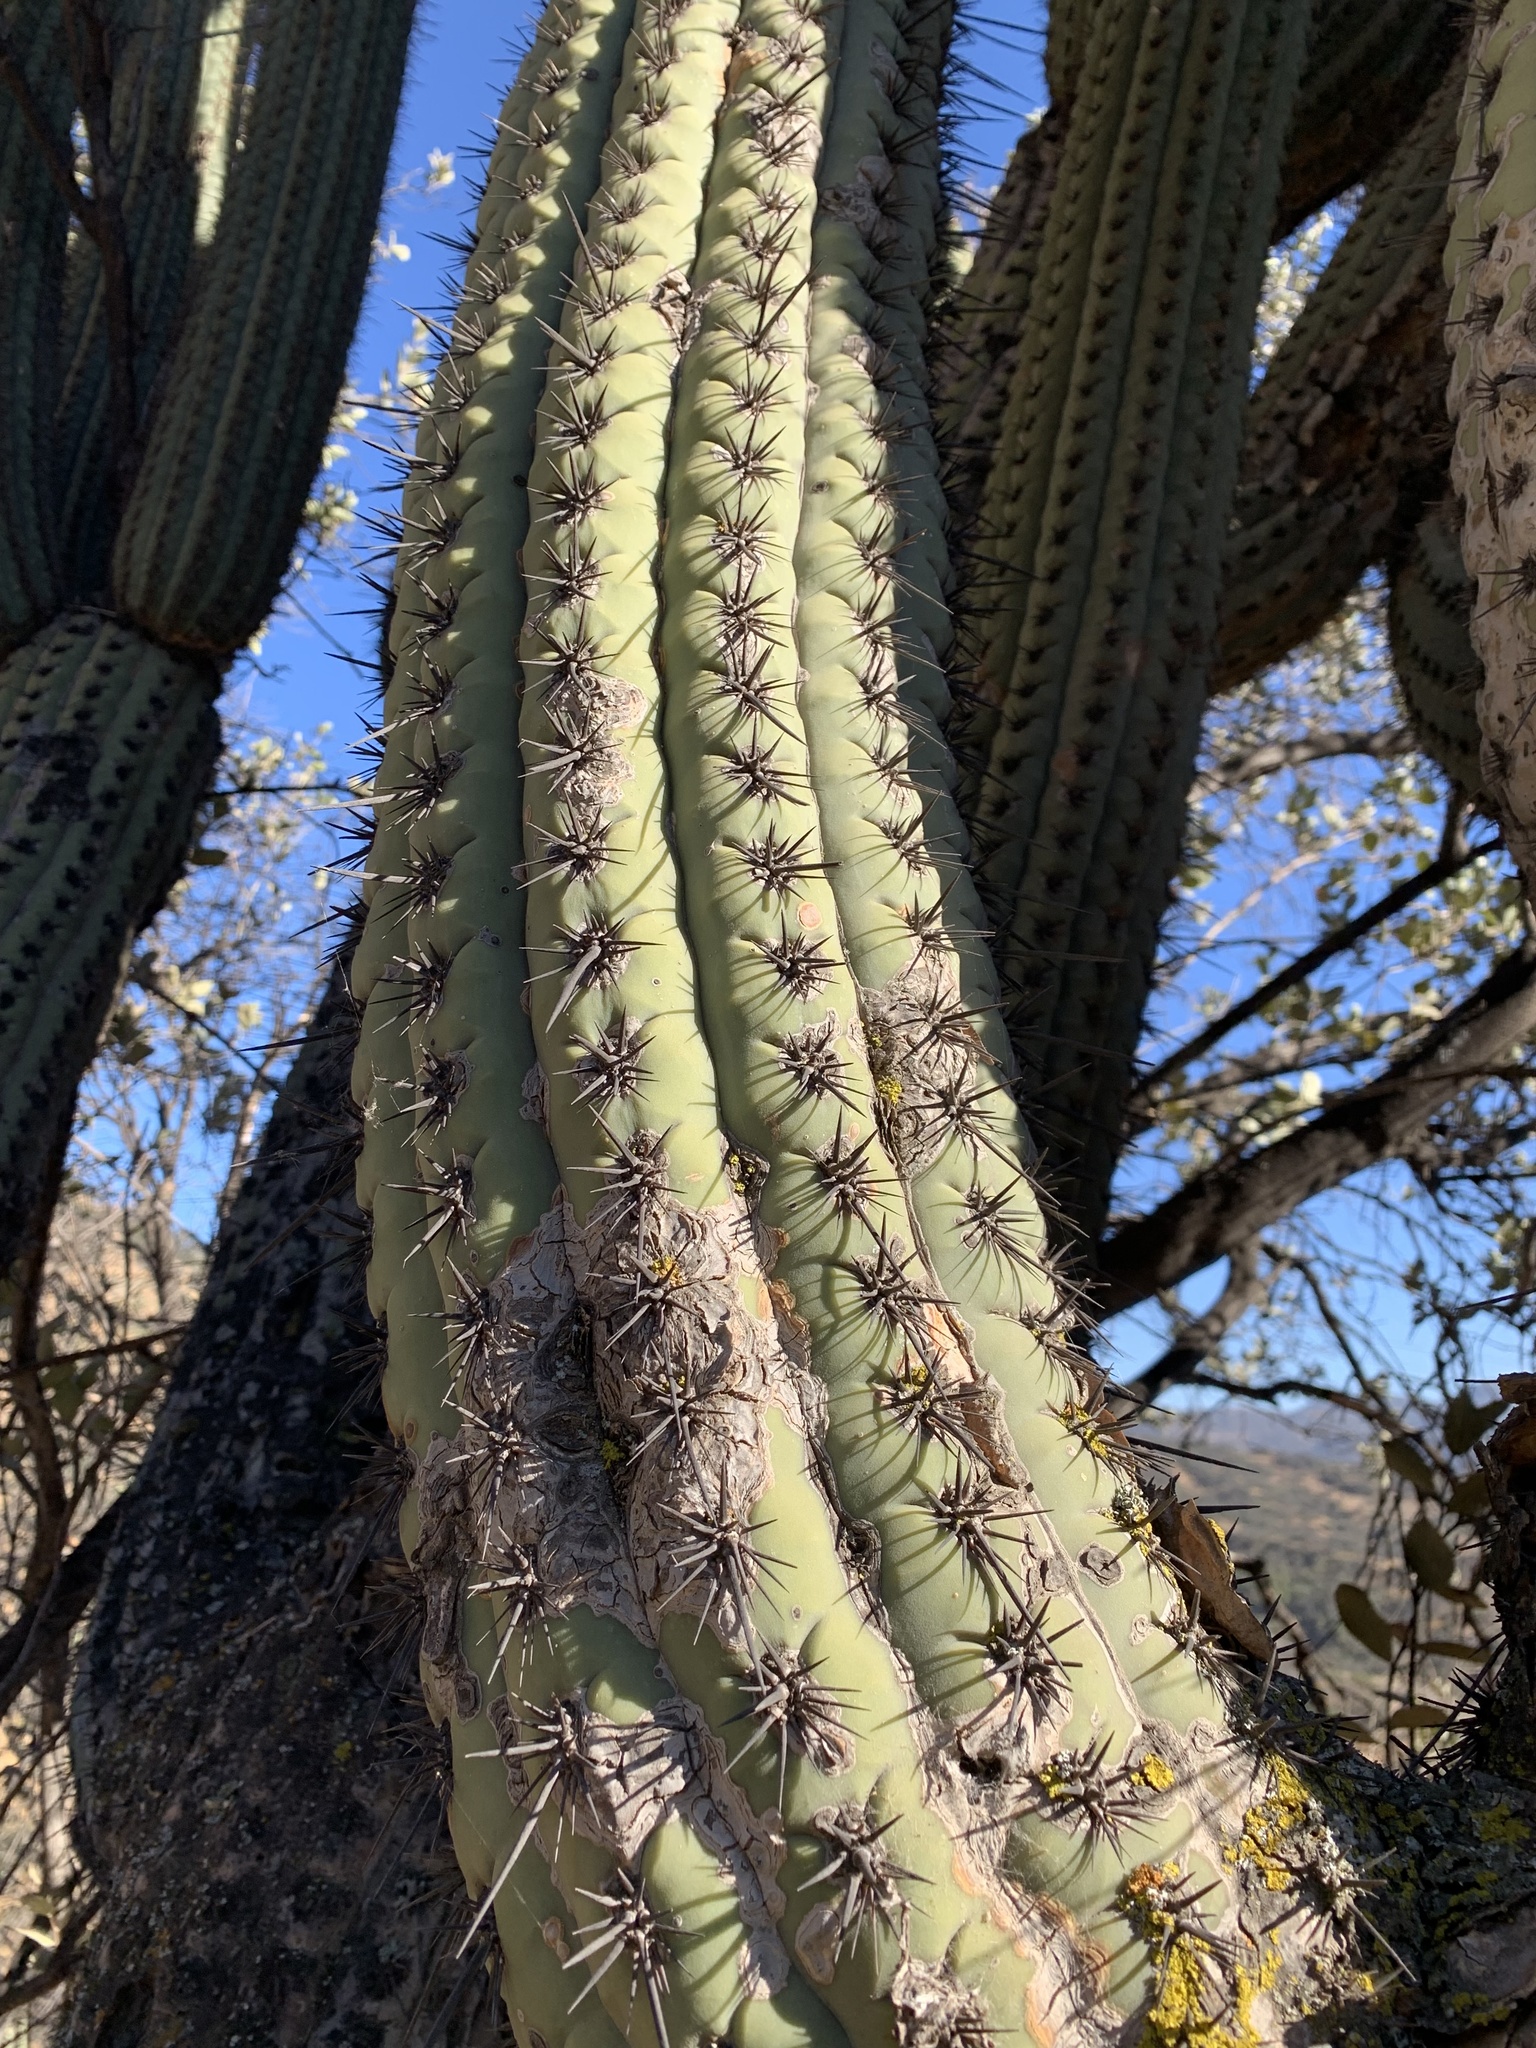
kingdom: Plantae
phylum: Tracheophyta
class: Magnoliopsida
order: Caryophyllales
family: Cactaceae
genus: Leucostele
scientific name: Leucostele chiloensis
